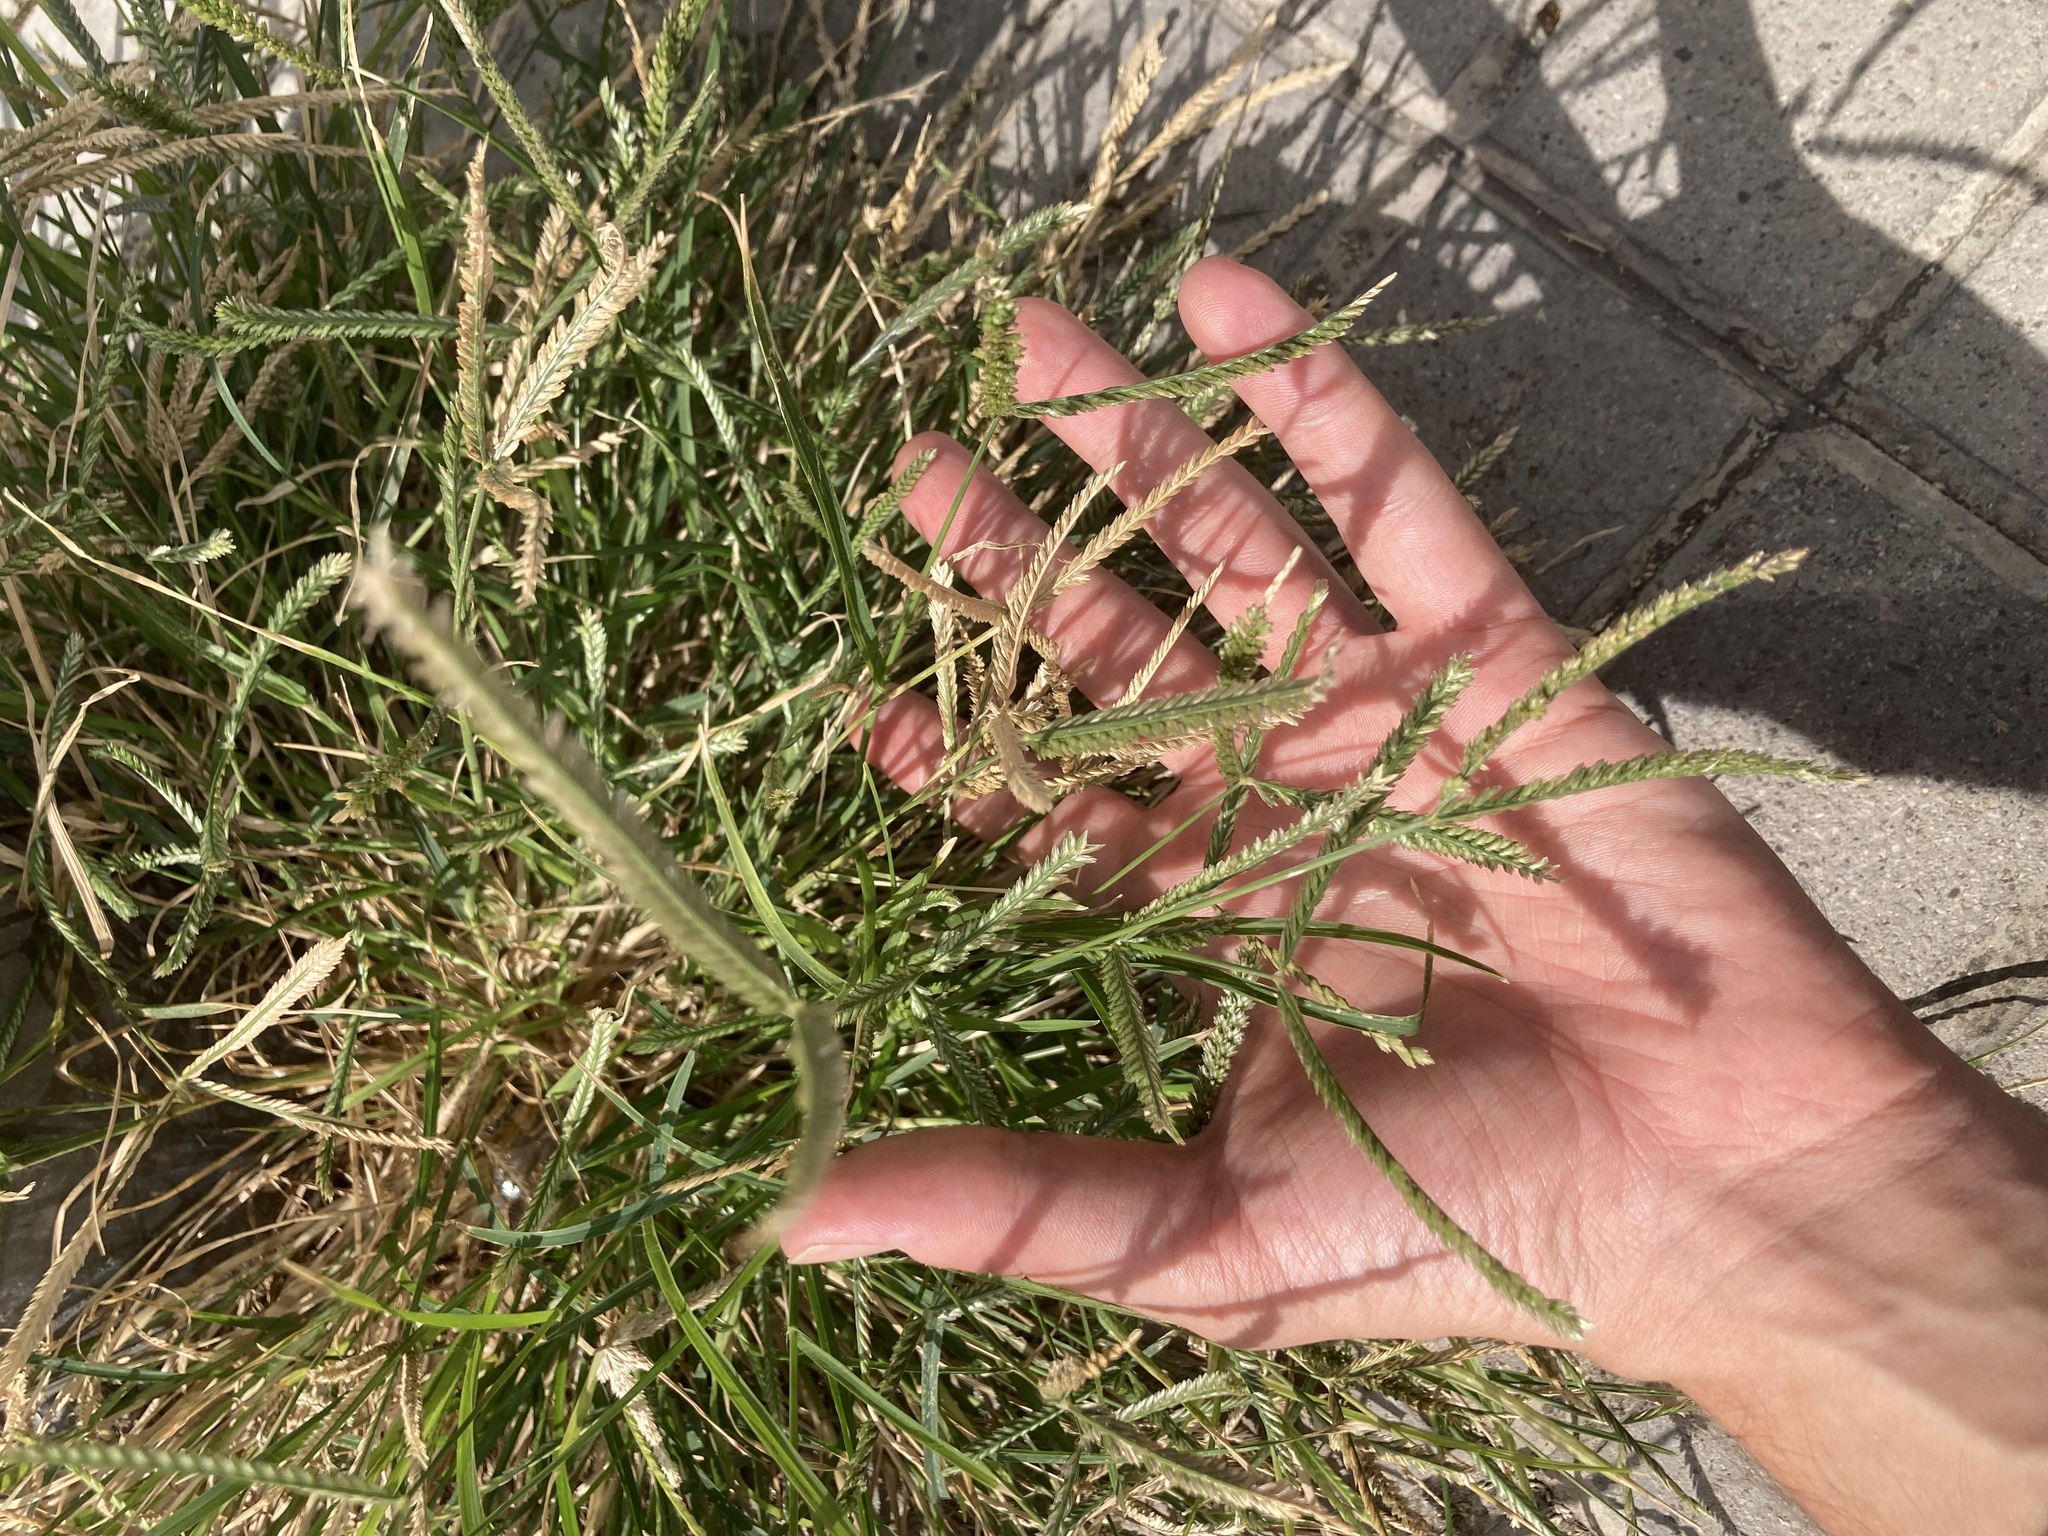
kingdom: Plantae
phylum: Tracheophyta
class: Liliopsida
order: Poales
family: Poaceae
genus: Eleusine
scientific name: Eleusine indica
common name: Yard-grass
